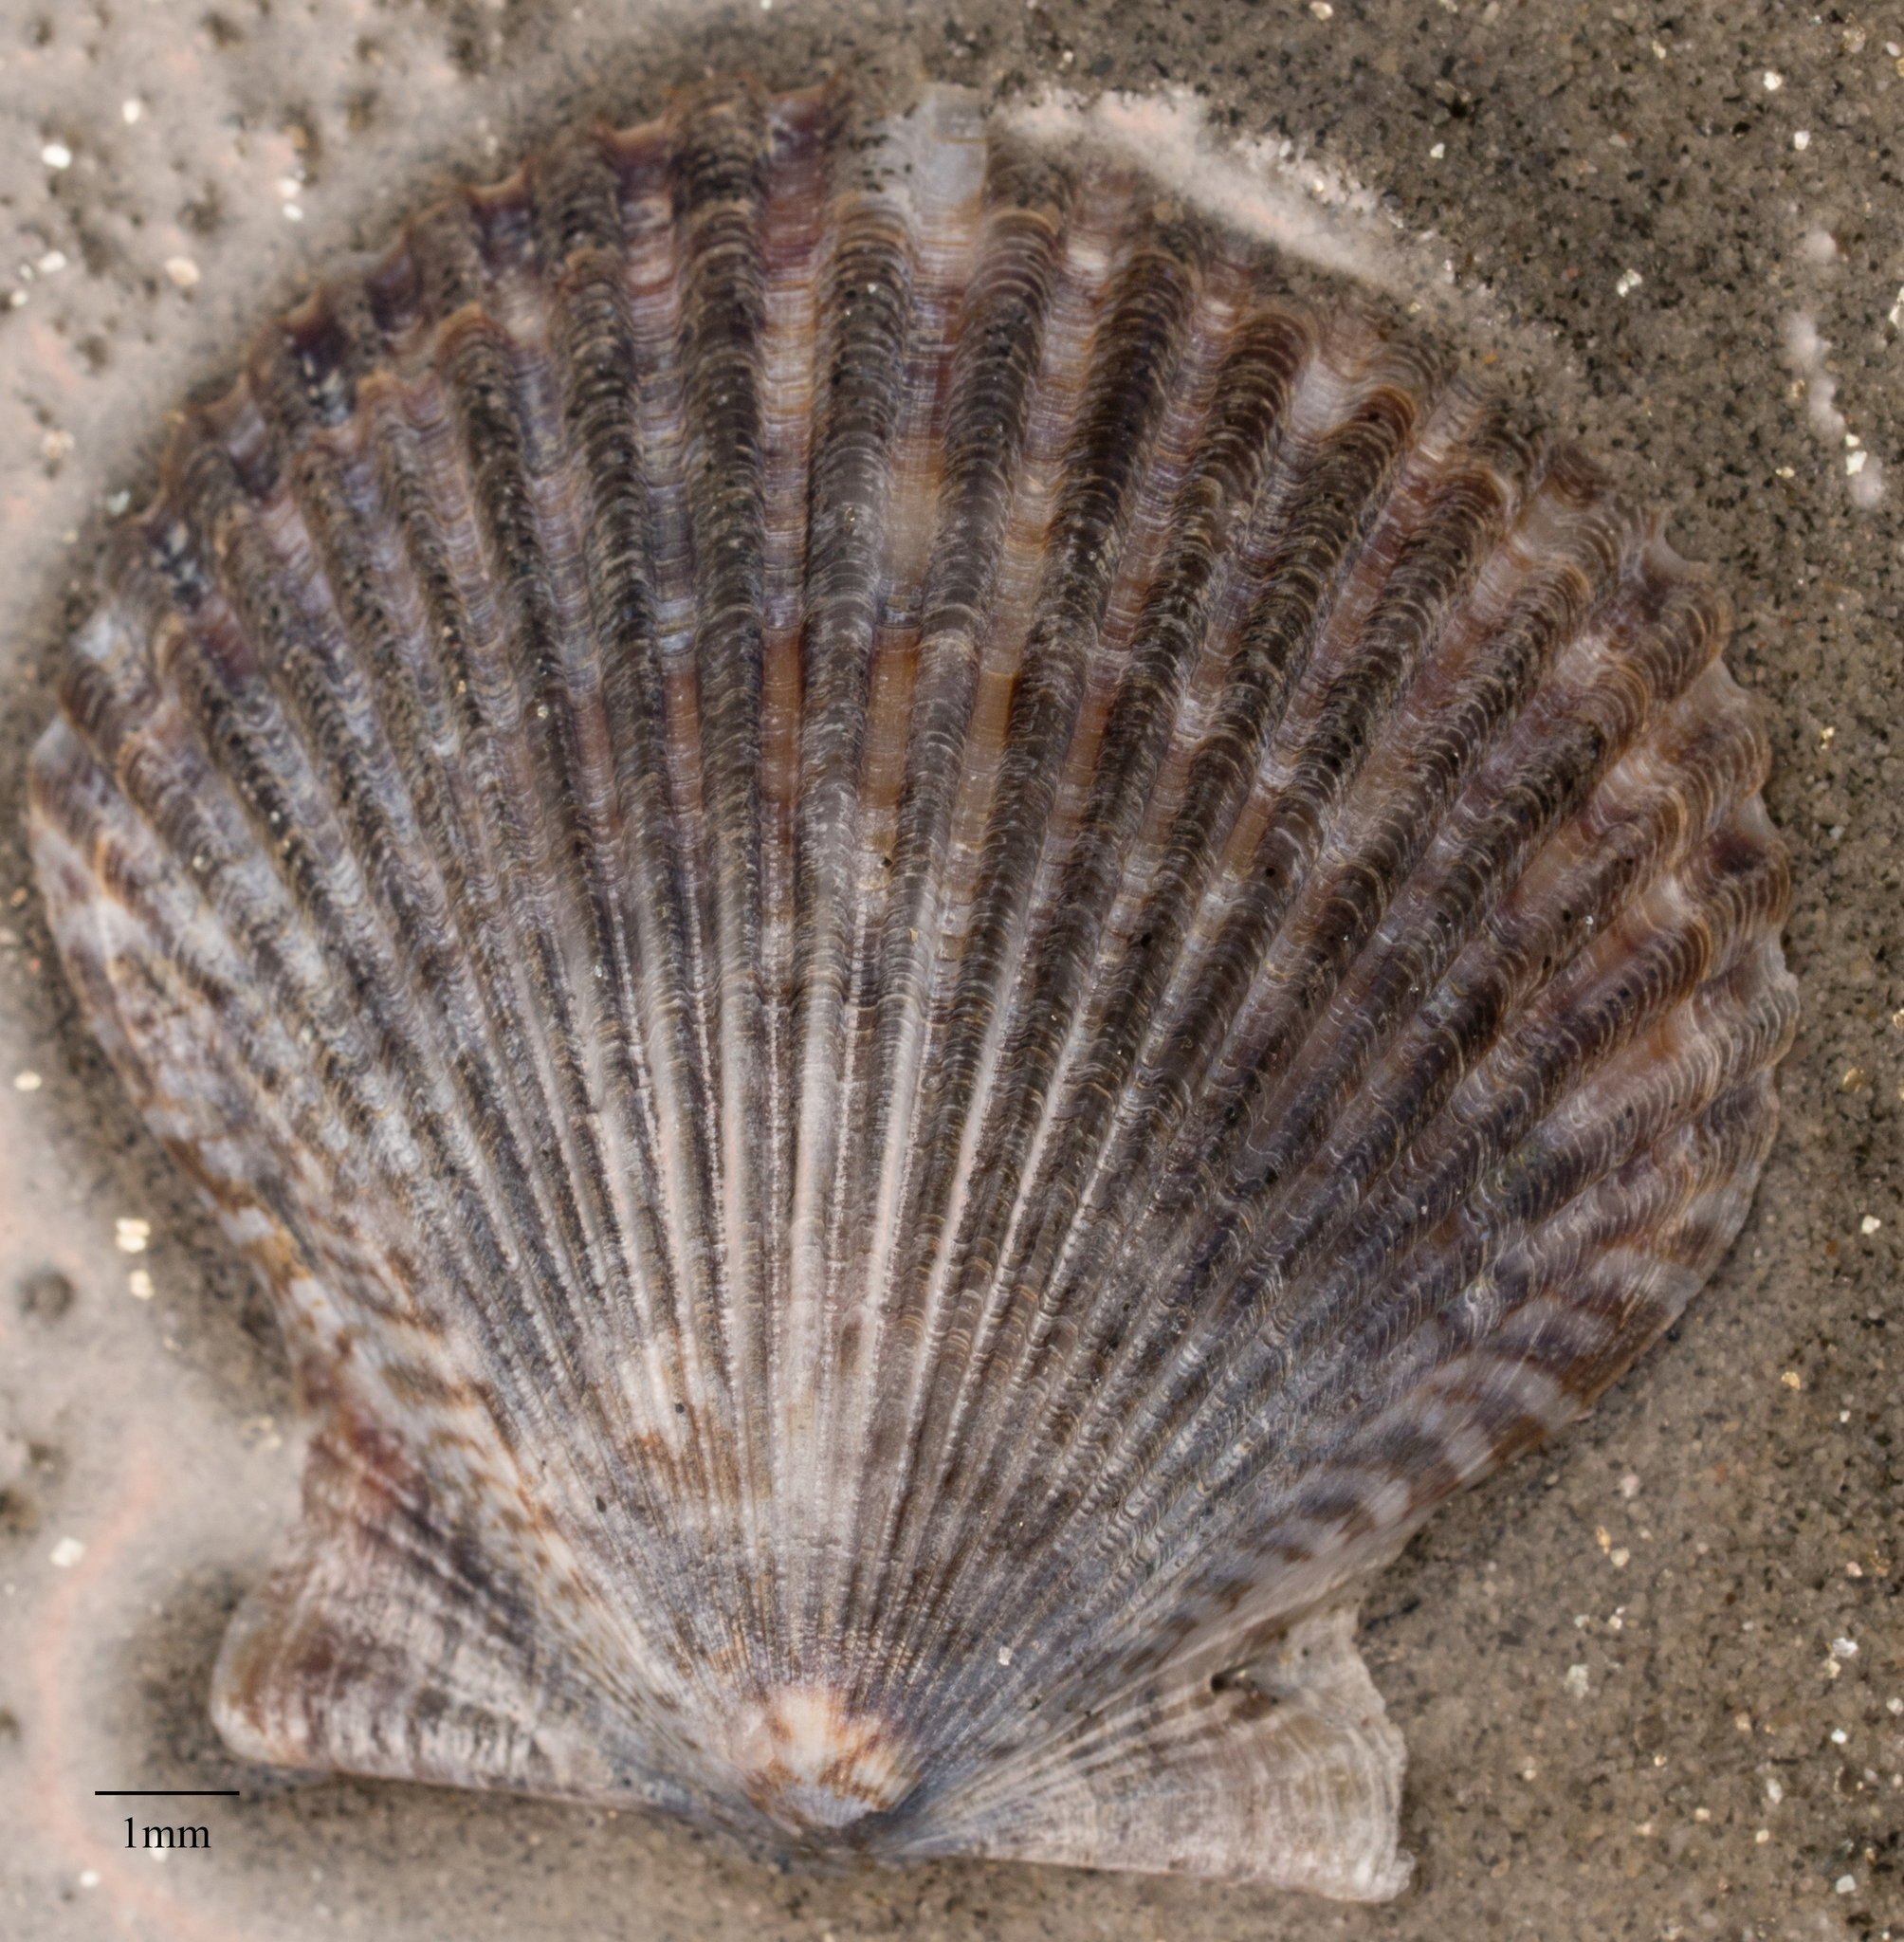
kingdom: Animalia
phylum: Mollusca
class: Bivalvia
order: Pectinida
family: Pectinidae
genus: Argopecten
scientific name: Argopecten ventricosus
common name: Catarina scallop
